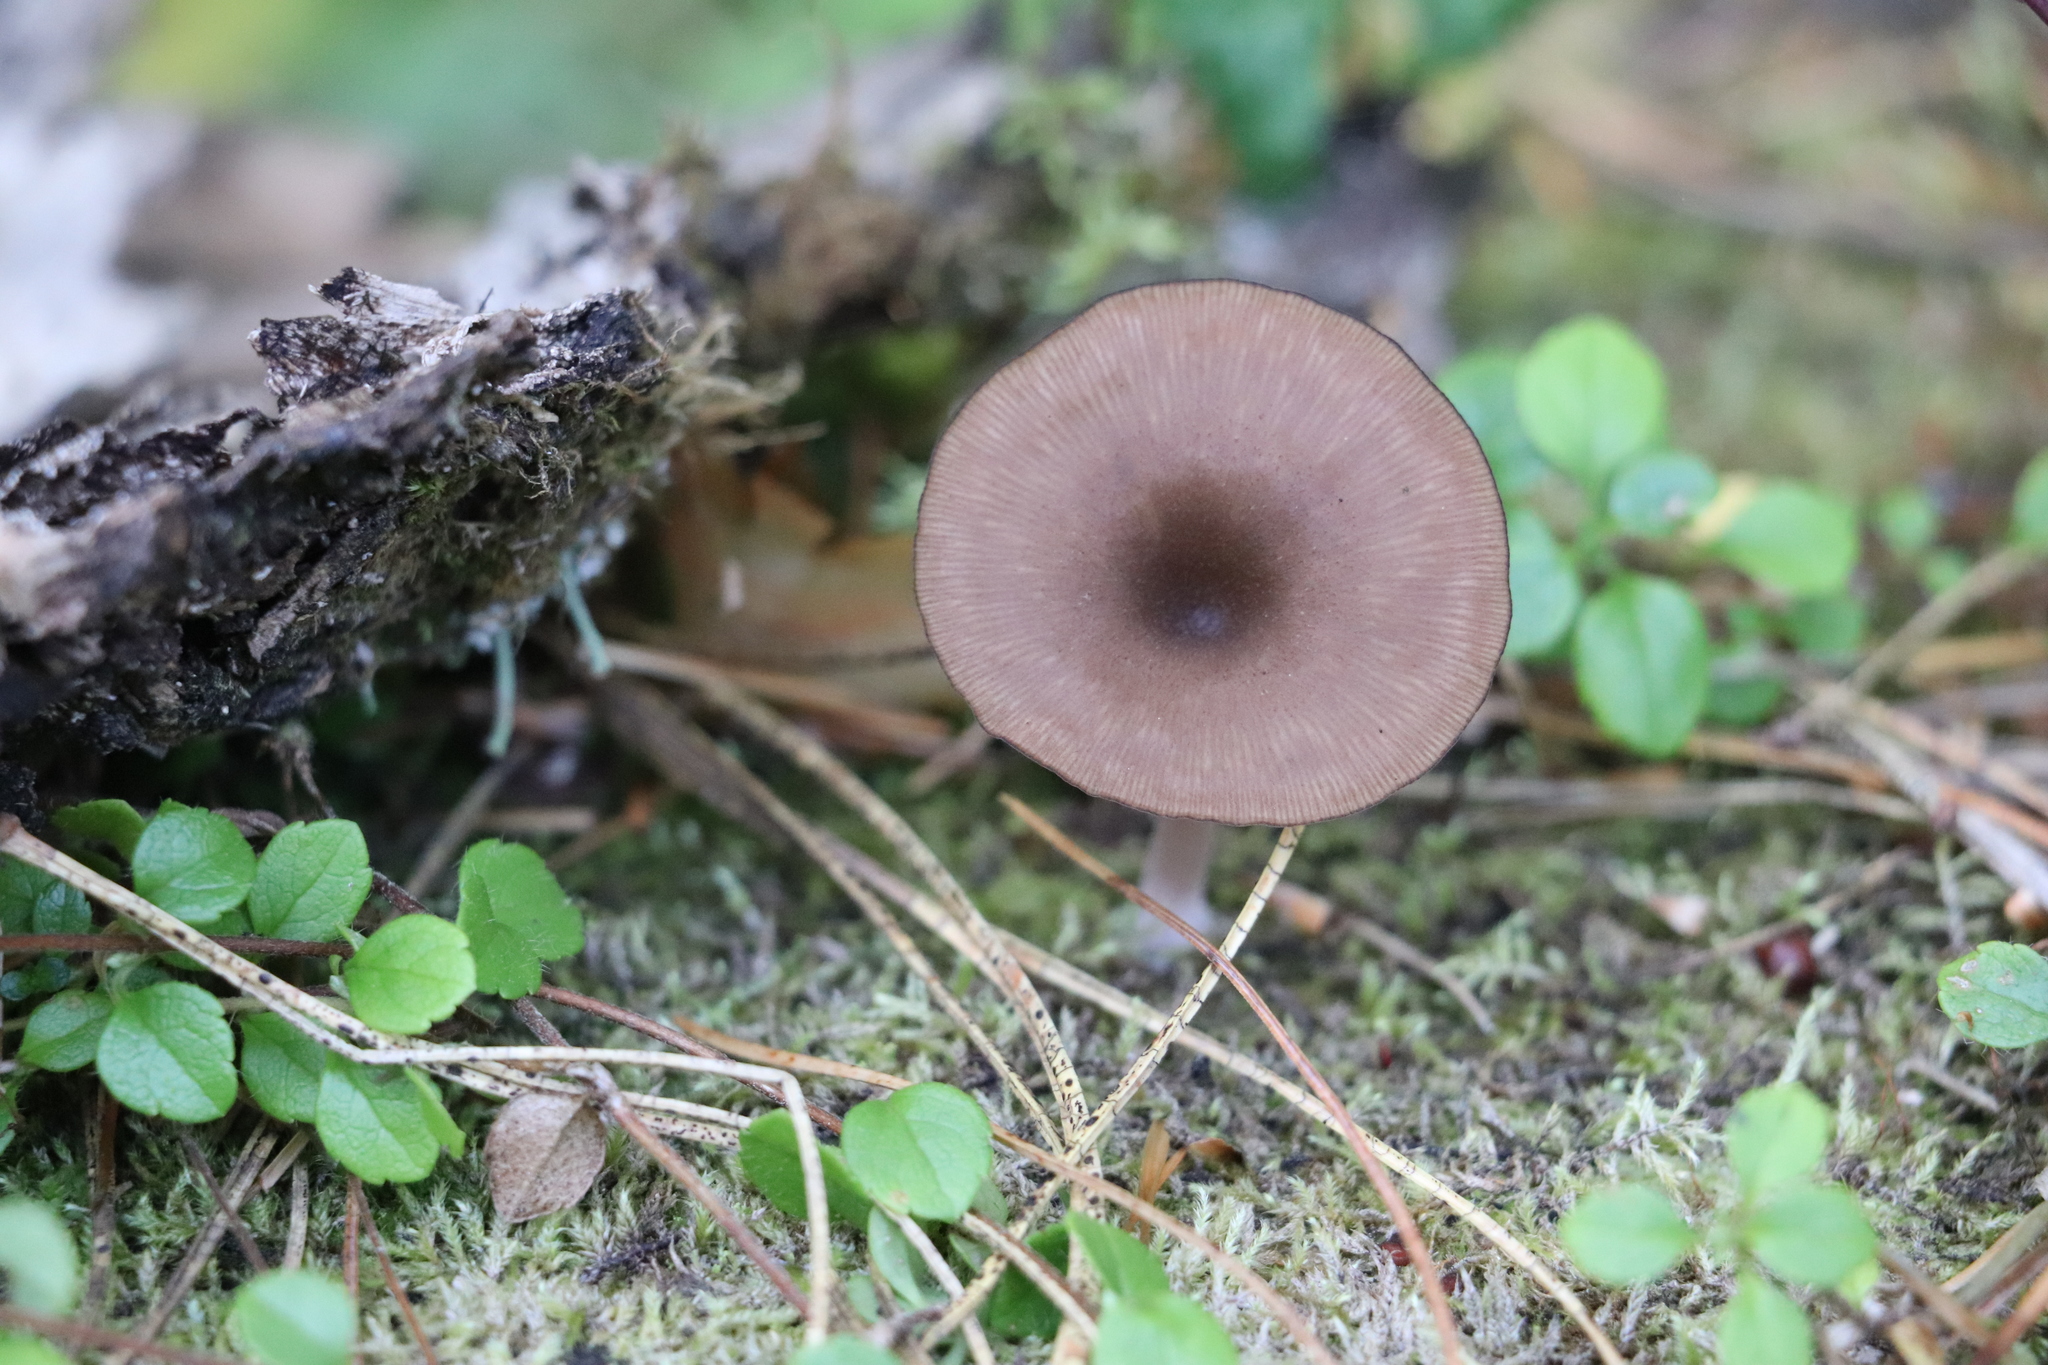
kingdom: Fungi
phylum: Basidiomycota
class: Agaricomycetes
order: Agaricales
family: Hygrophoraceae
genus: Arrhenia
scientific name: Arrhenia discorosea
